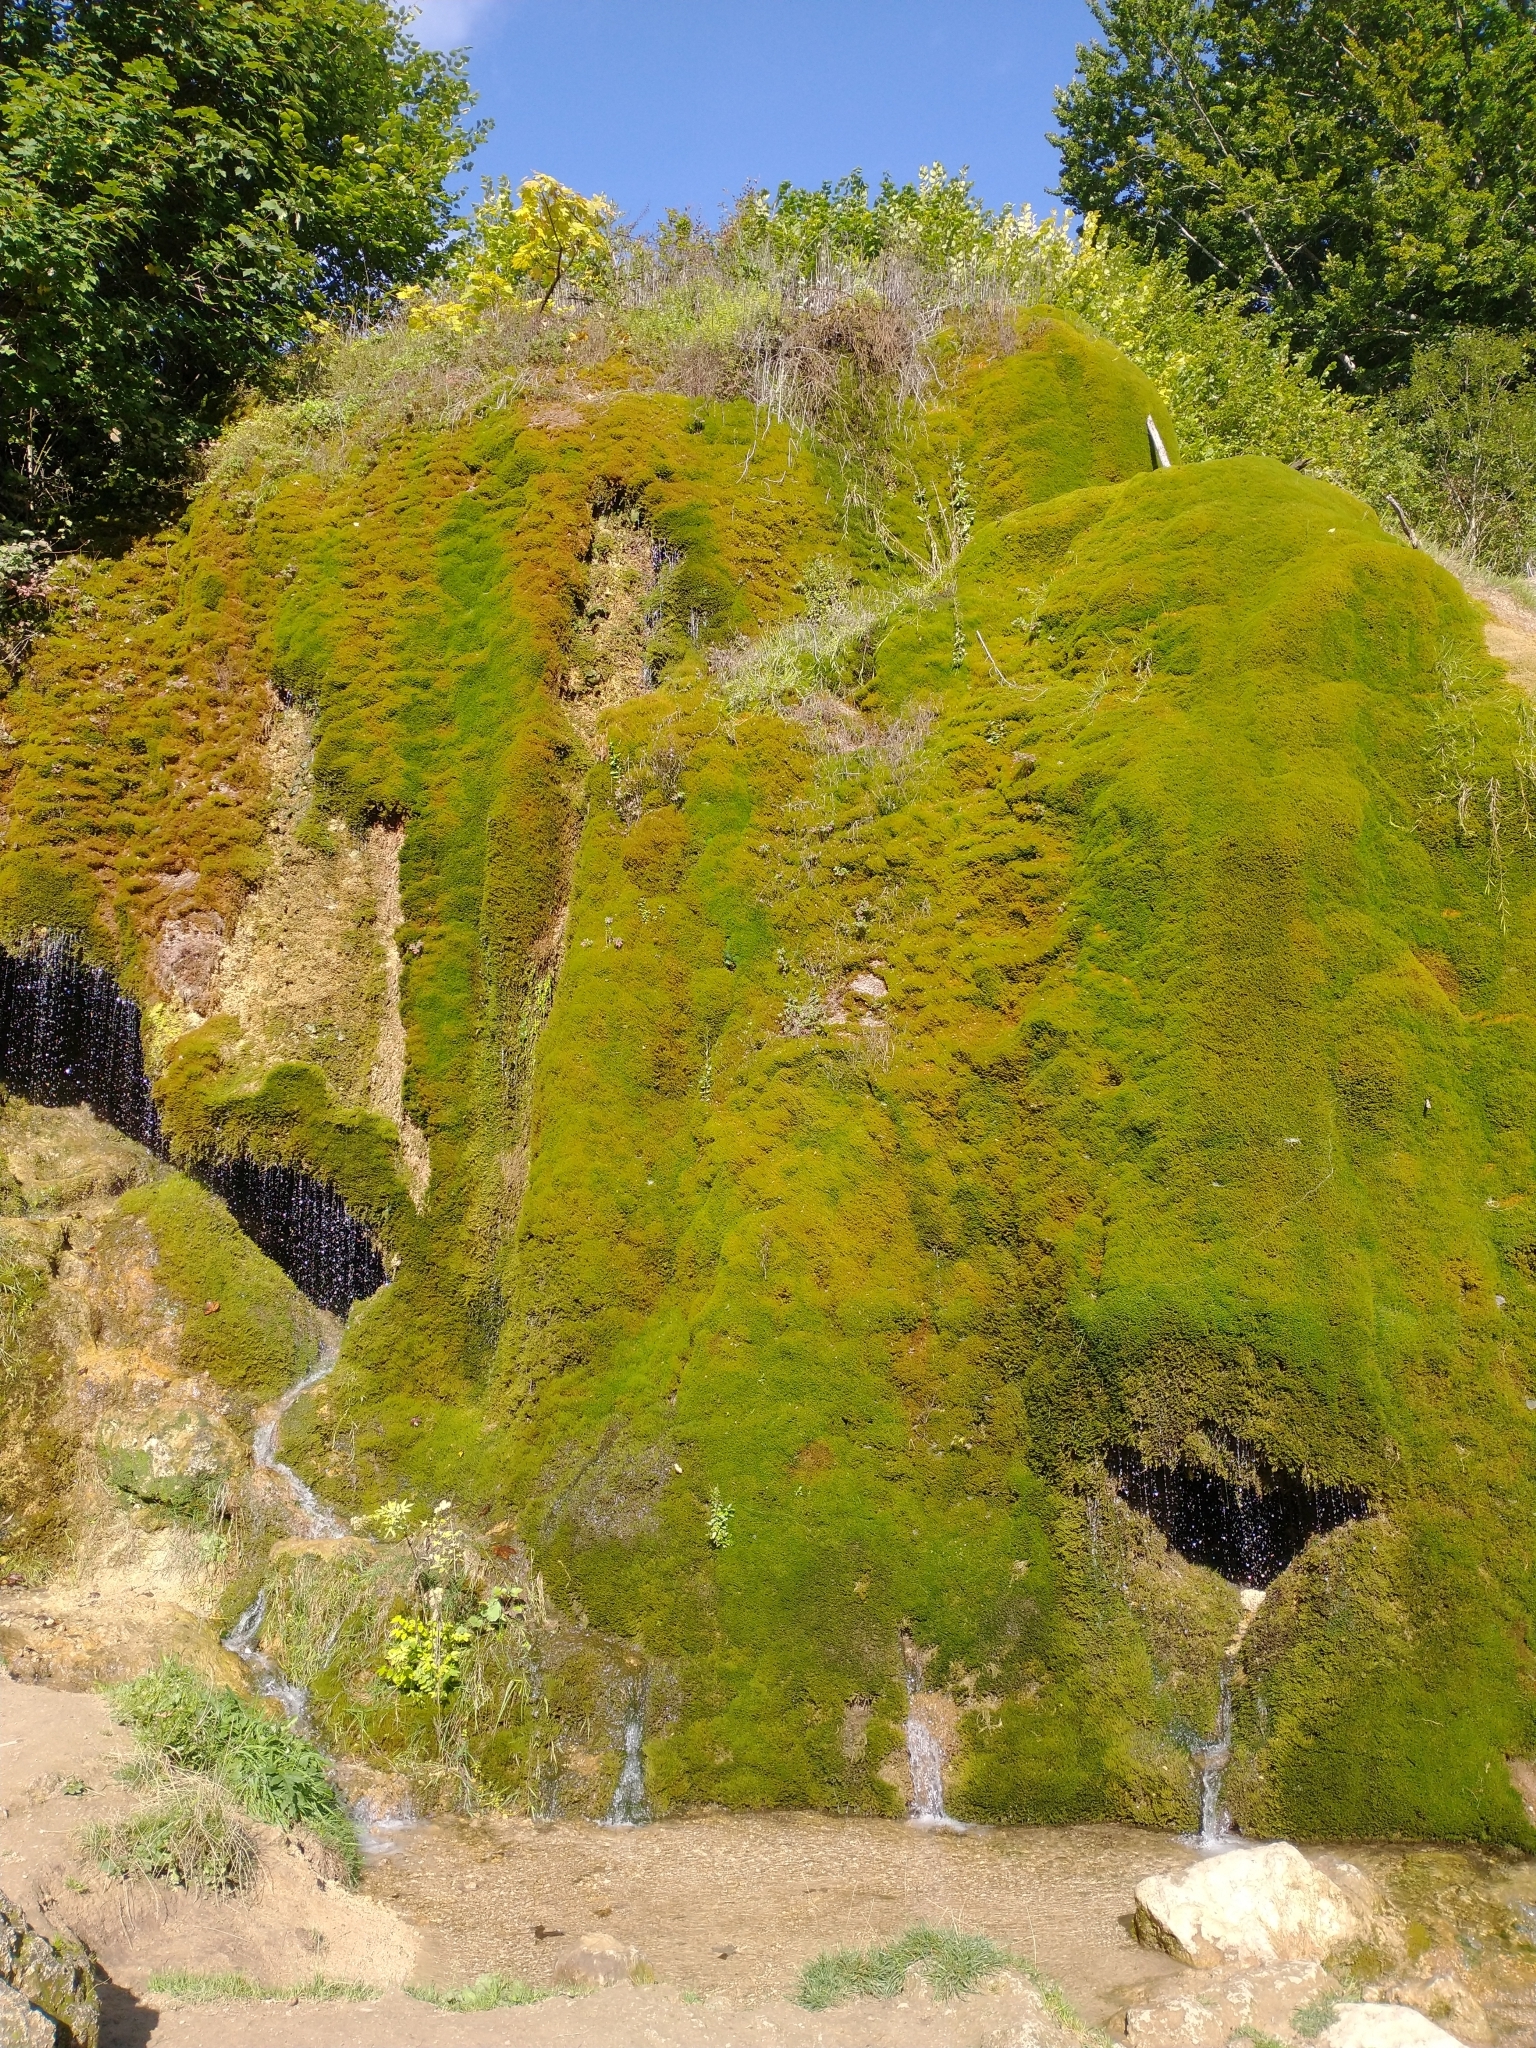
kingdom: Plantae
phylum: Bryophyta
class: Bryopsida
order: Hypnales
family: Amblystegiaceae
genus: Palustriella
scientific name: Palustriella commutata
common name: Curled hook-moss
